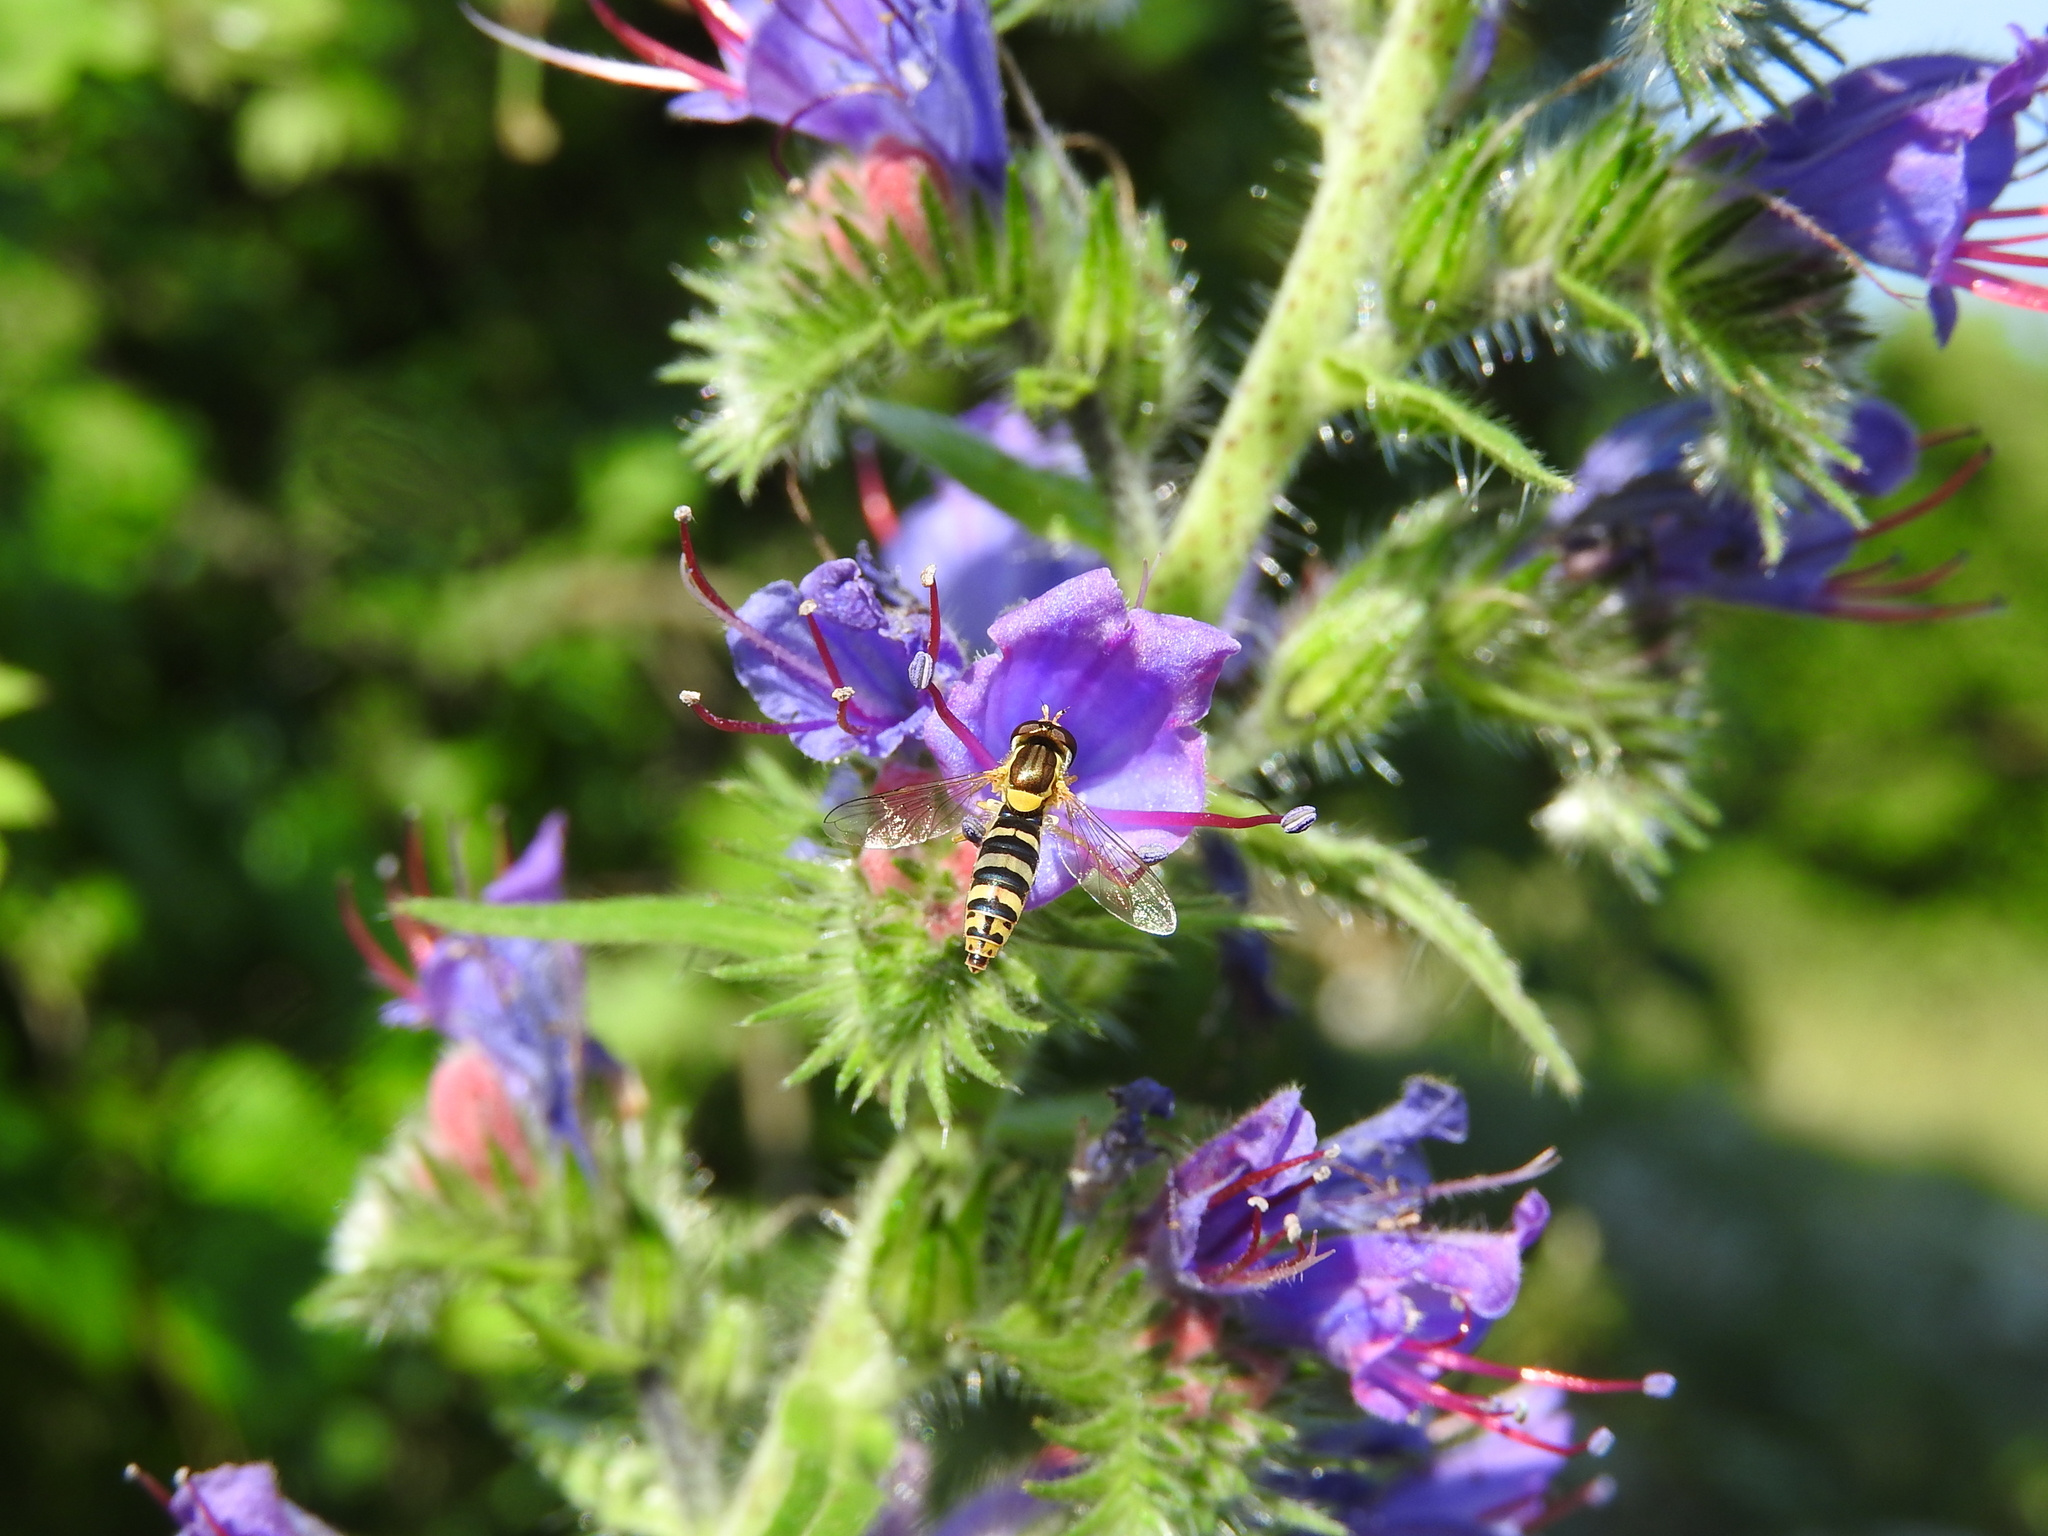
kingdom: Animalia
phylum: Arthropoda
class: Insecta
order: Diptera
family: Syrphidae
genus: Sphaerophoria
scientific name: Sphaerophoria
